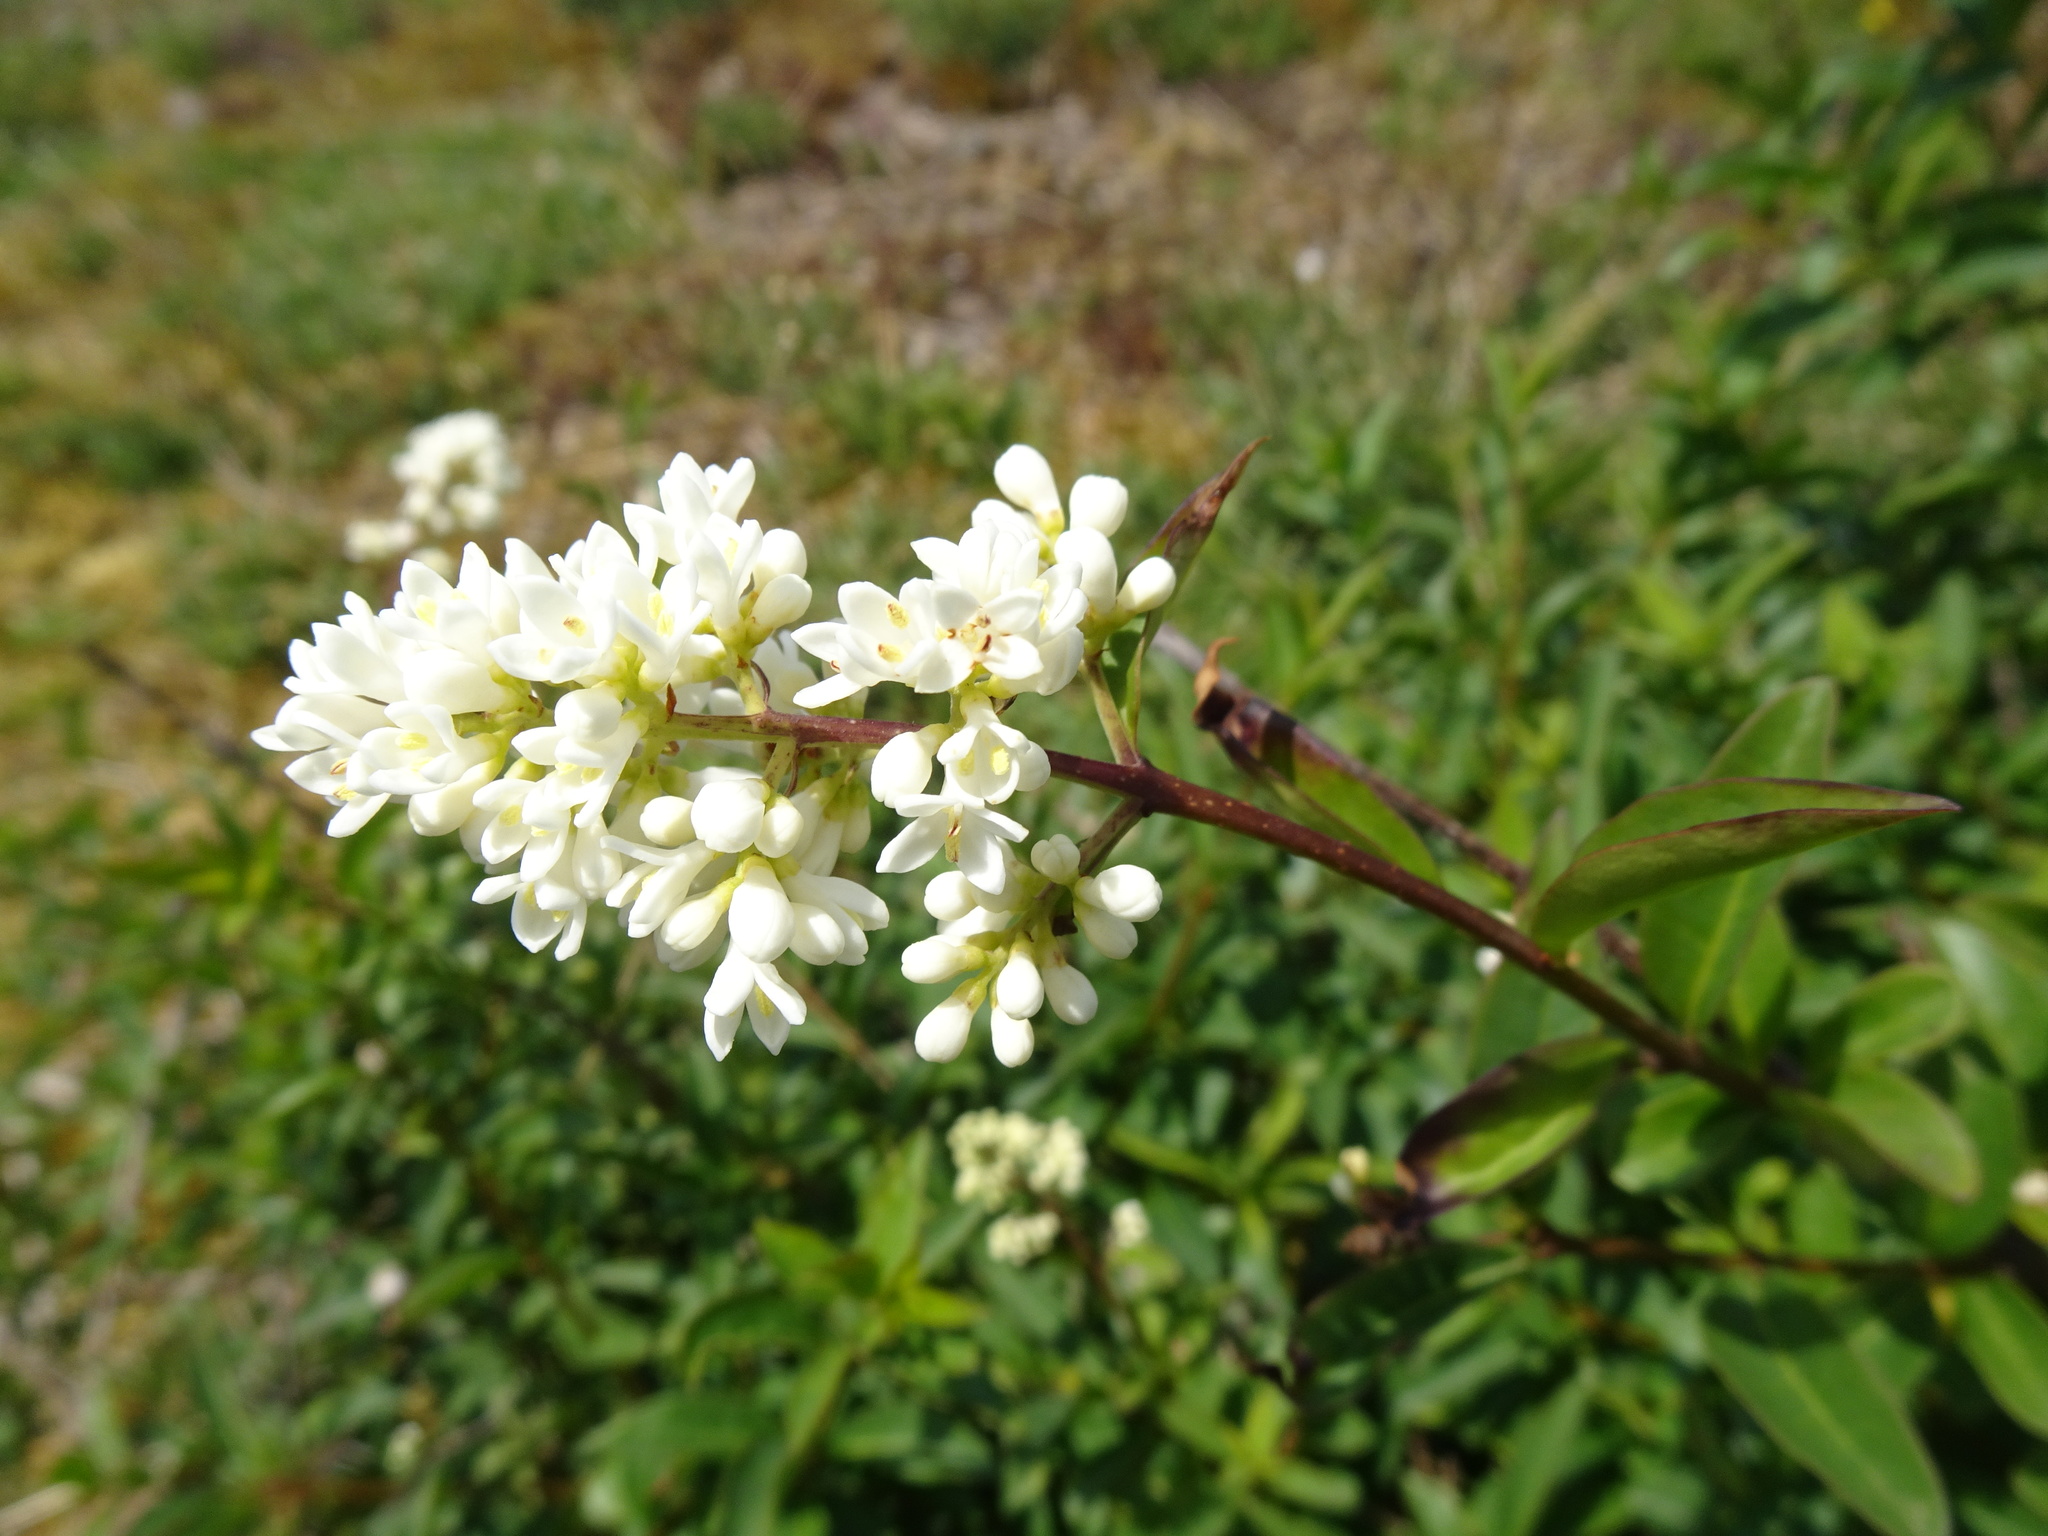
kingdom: Plantae
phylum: Tracheophyta
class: Magnoliopsida
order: Lamiales
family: Oleaceae
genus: Ligustrum
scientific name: Ligustrum vulgare
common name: Wild privet
